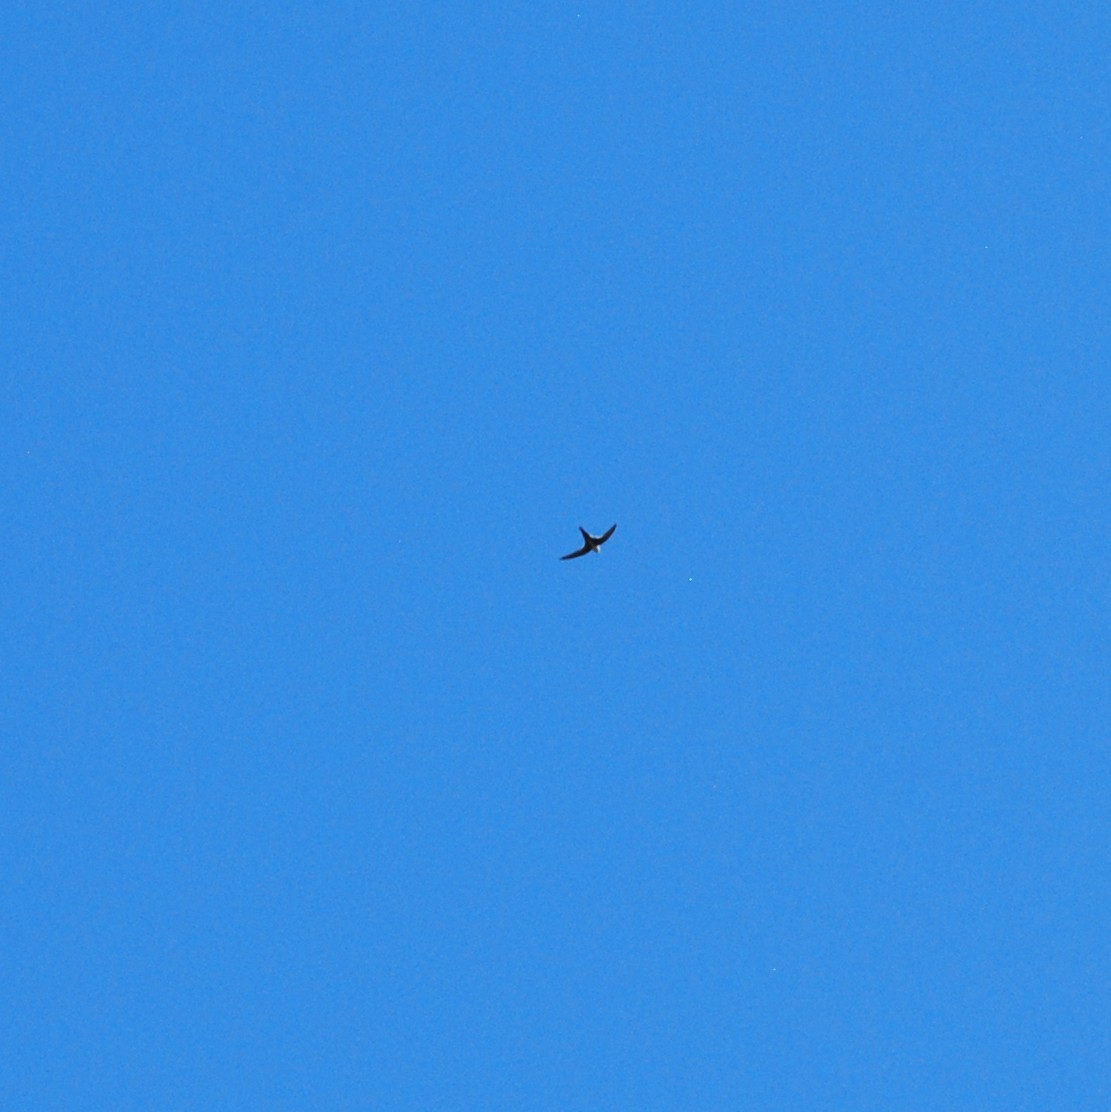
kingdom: Animalia
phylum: Chordata
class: Aves
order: Apodiformes
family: Apodidae
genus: Aeronautes
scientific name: Aeronautes saxatalis
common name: White-throated swift
